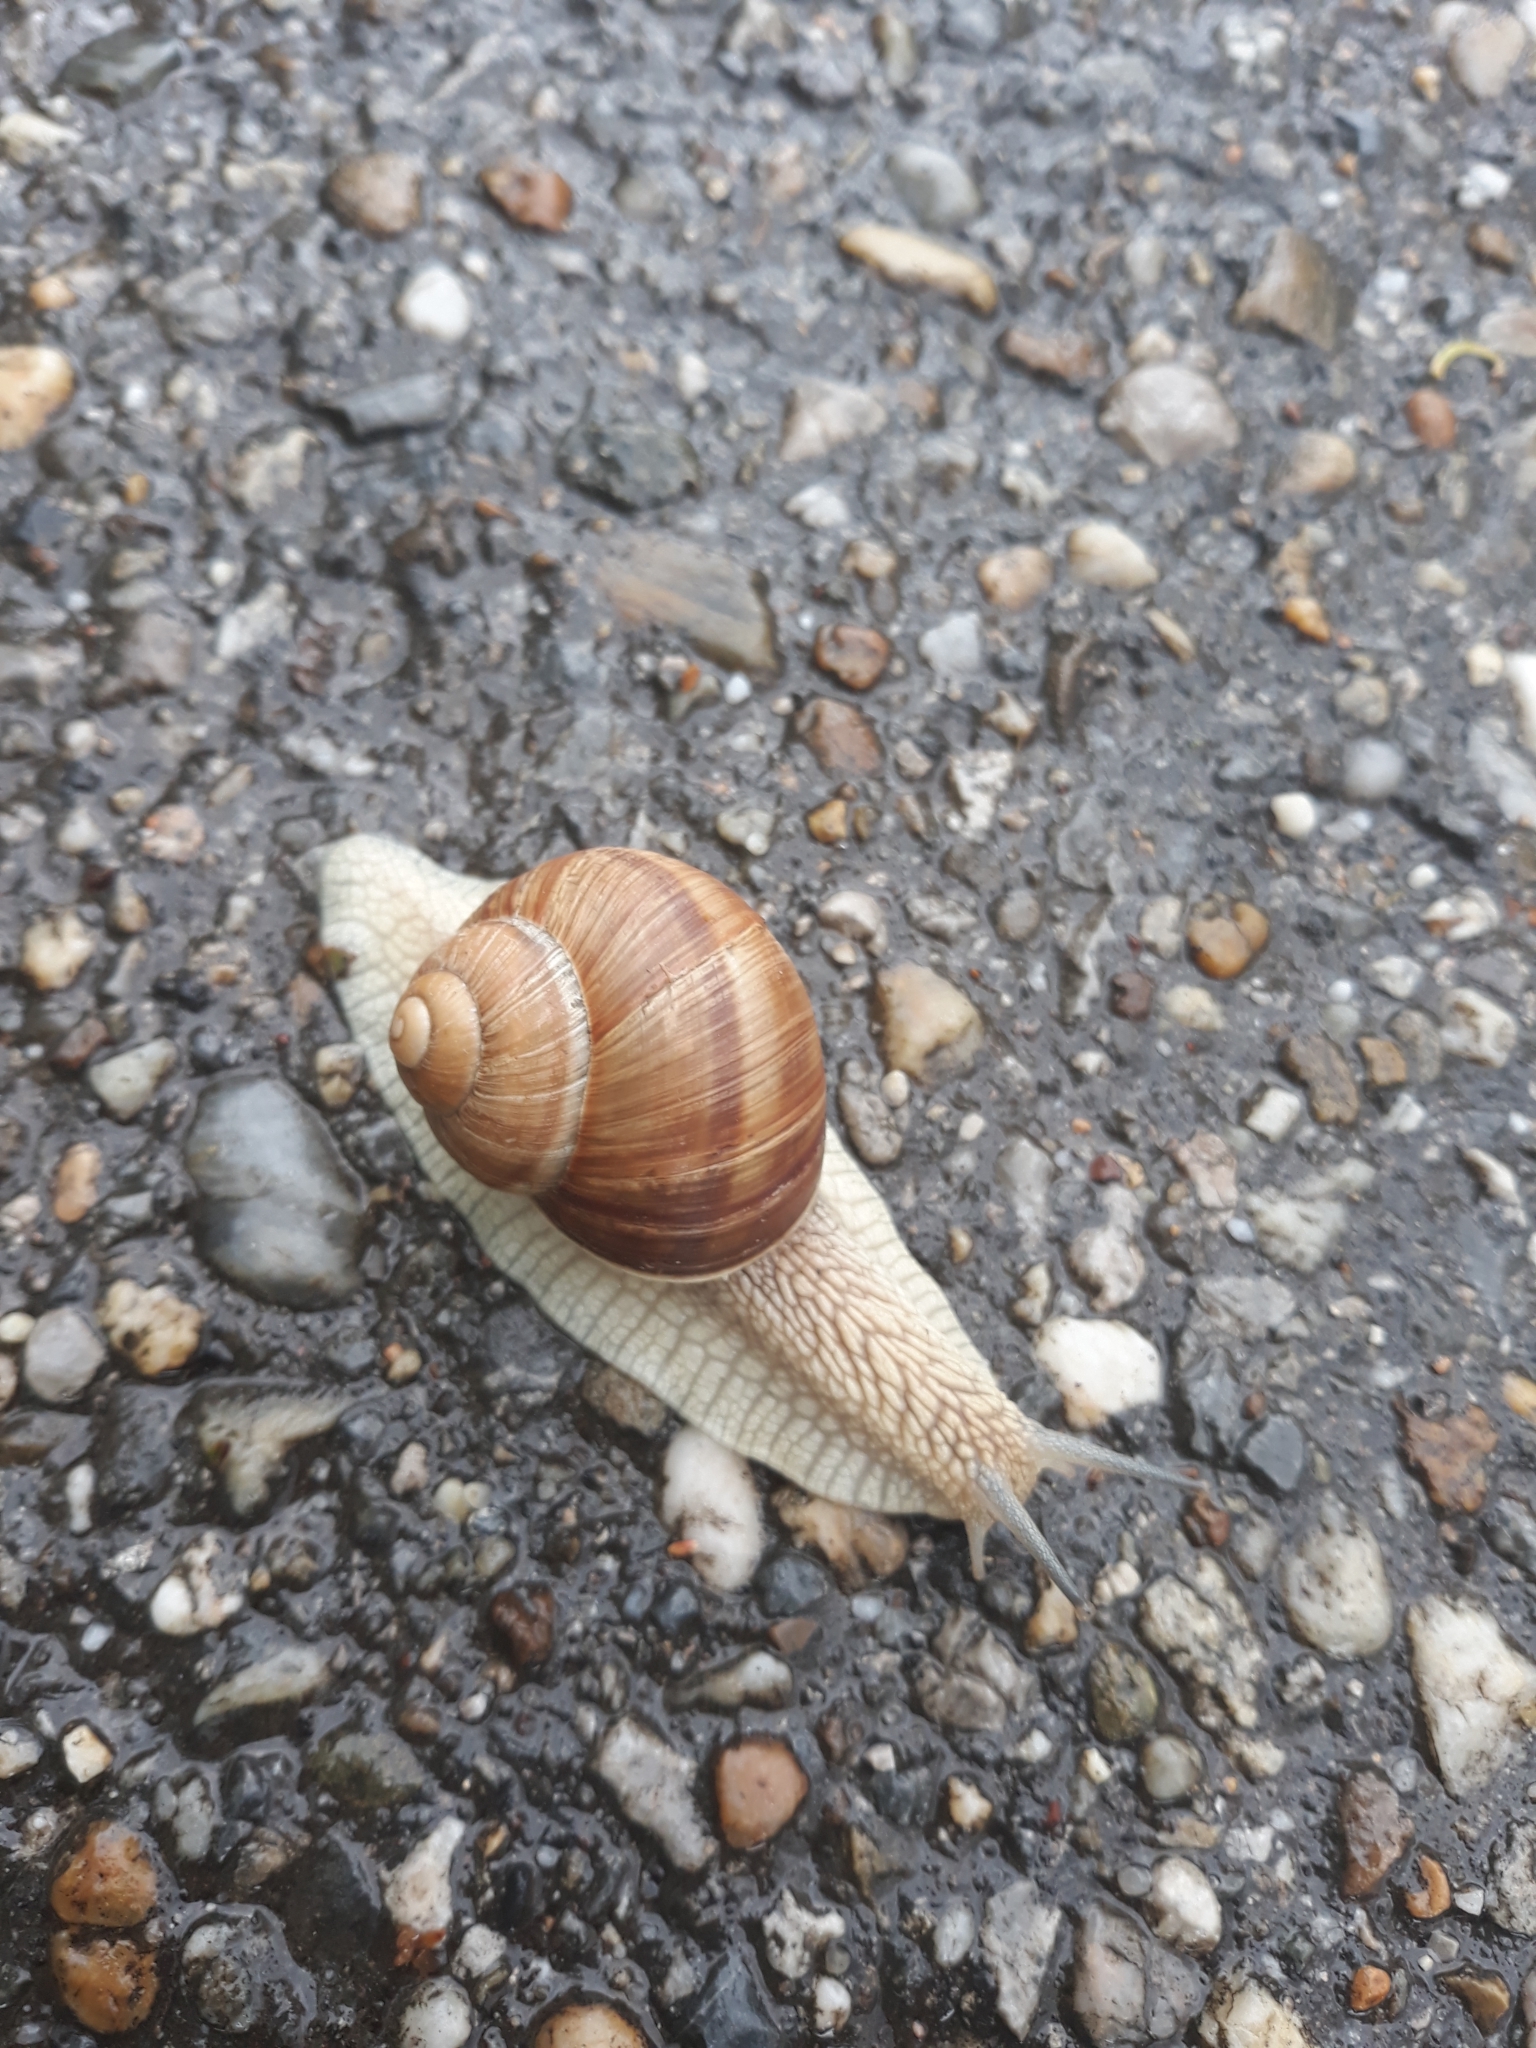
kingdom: Animalia
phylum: Mollusca
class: Gastropoda
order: Stylommatophora
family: Helicidae
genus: Helix
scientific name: Helix pomatia
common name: Roman snail
